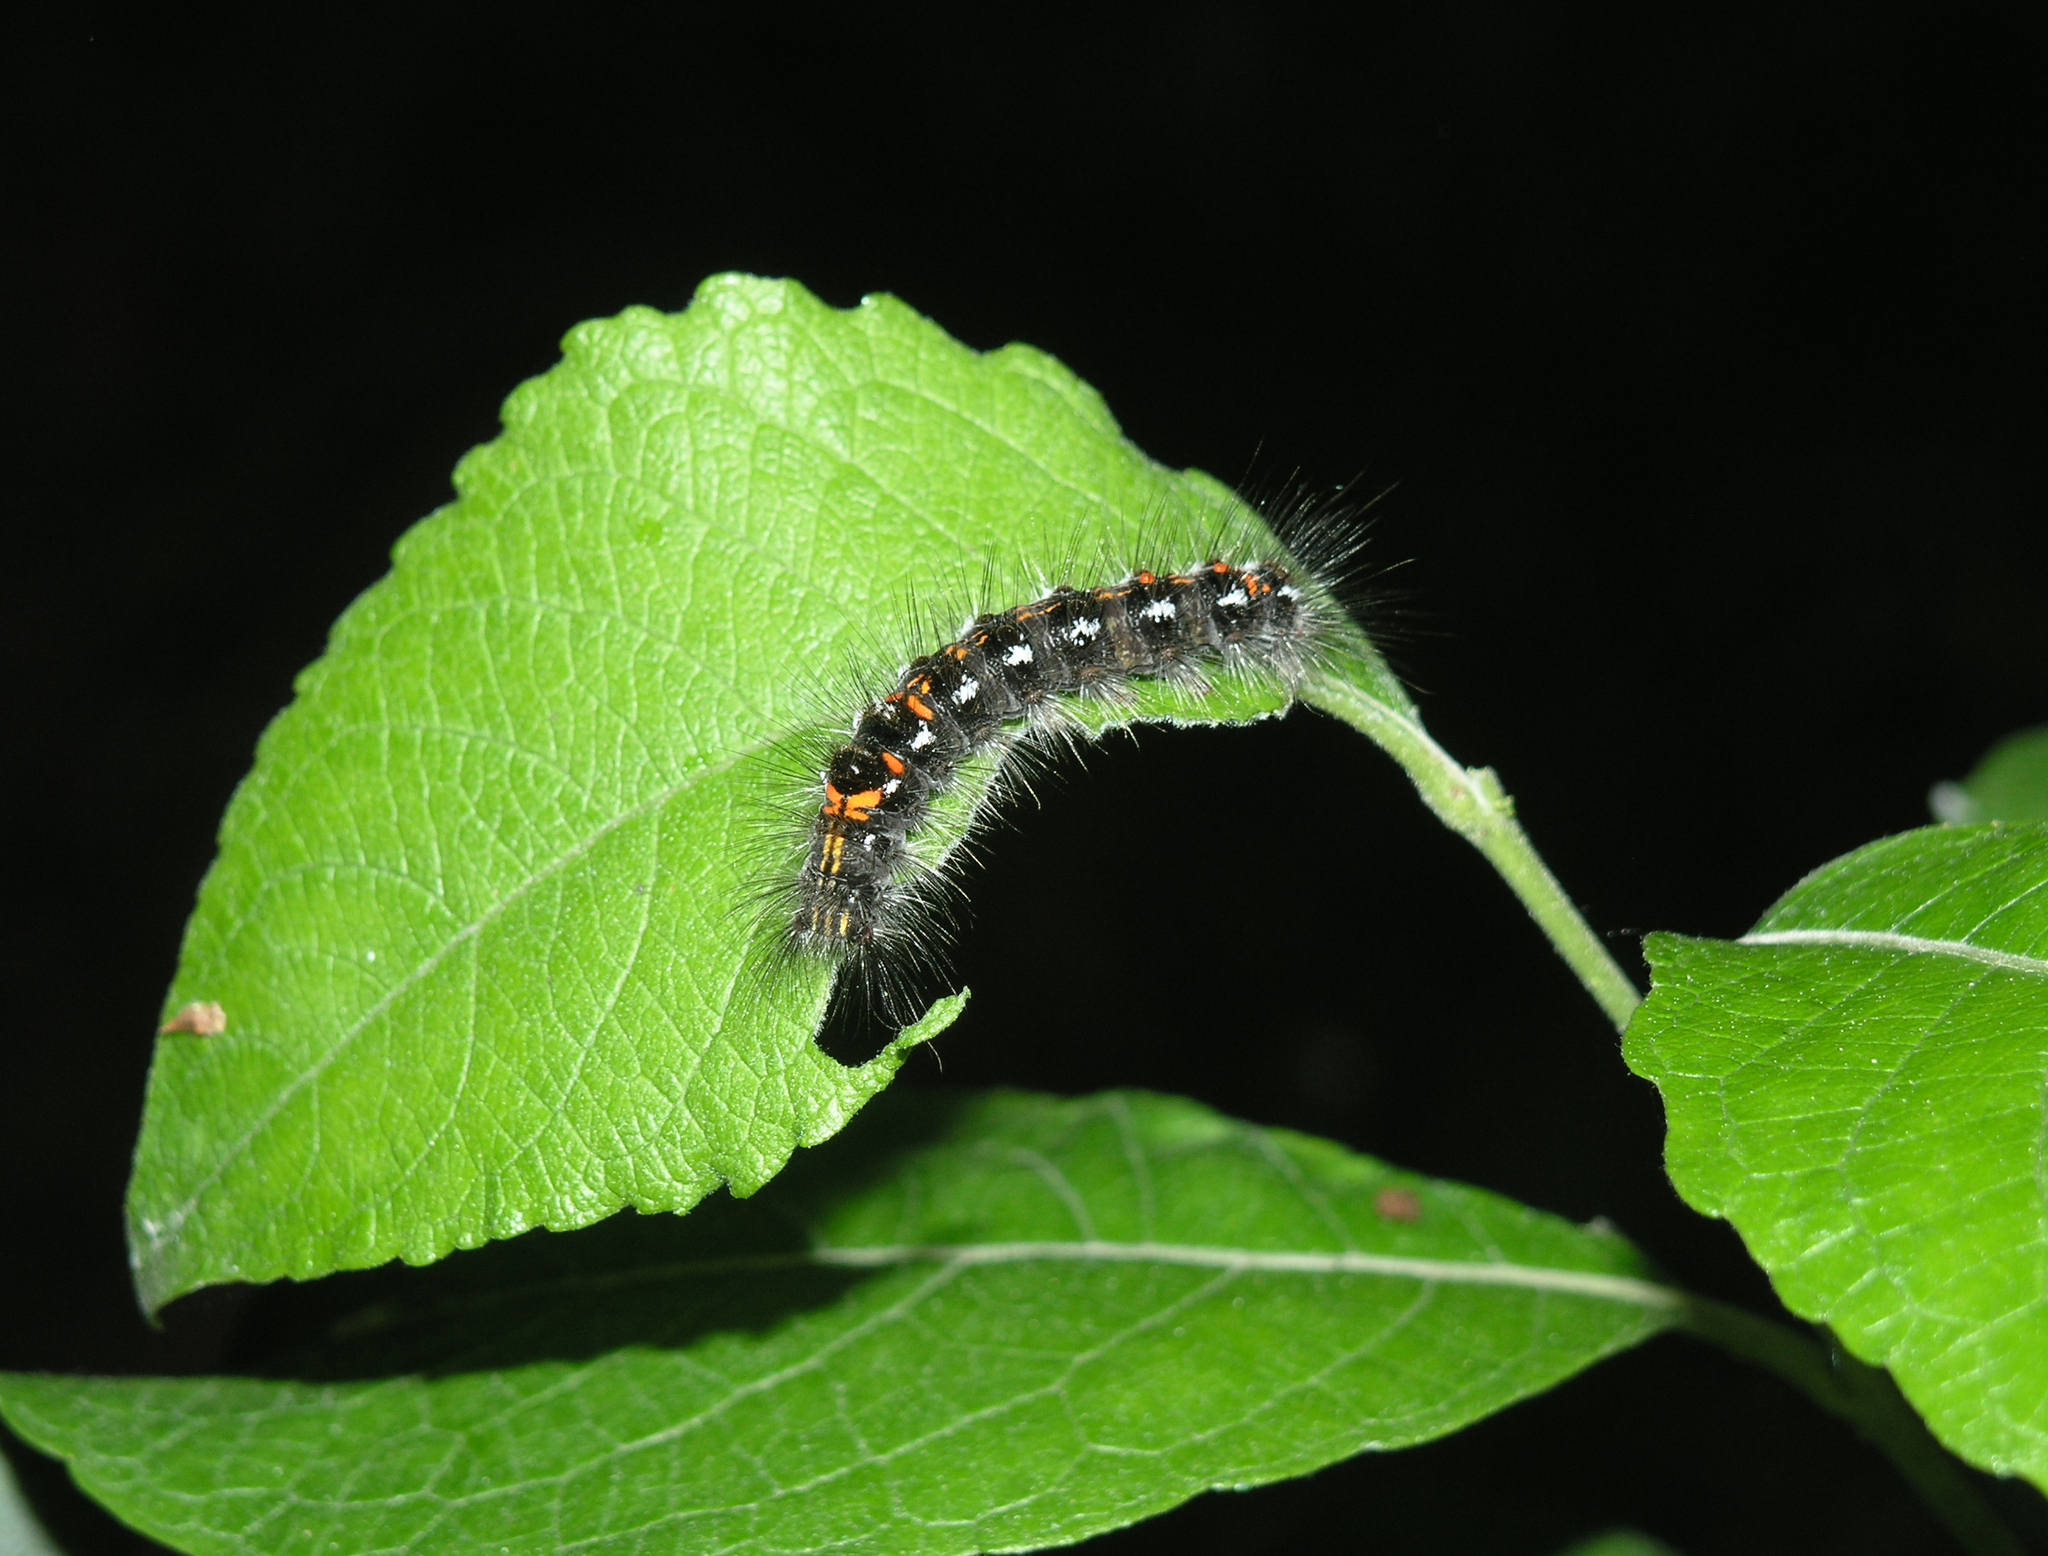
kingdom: Animalia
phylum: Arthropoda
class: Insecta
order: Lepidoptera
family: Erebidae
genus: Sphrageidus
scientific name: Sphrageidus similis
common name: Yellow-tail
